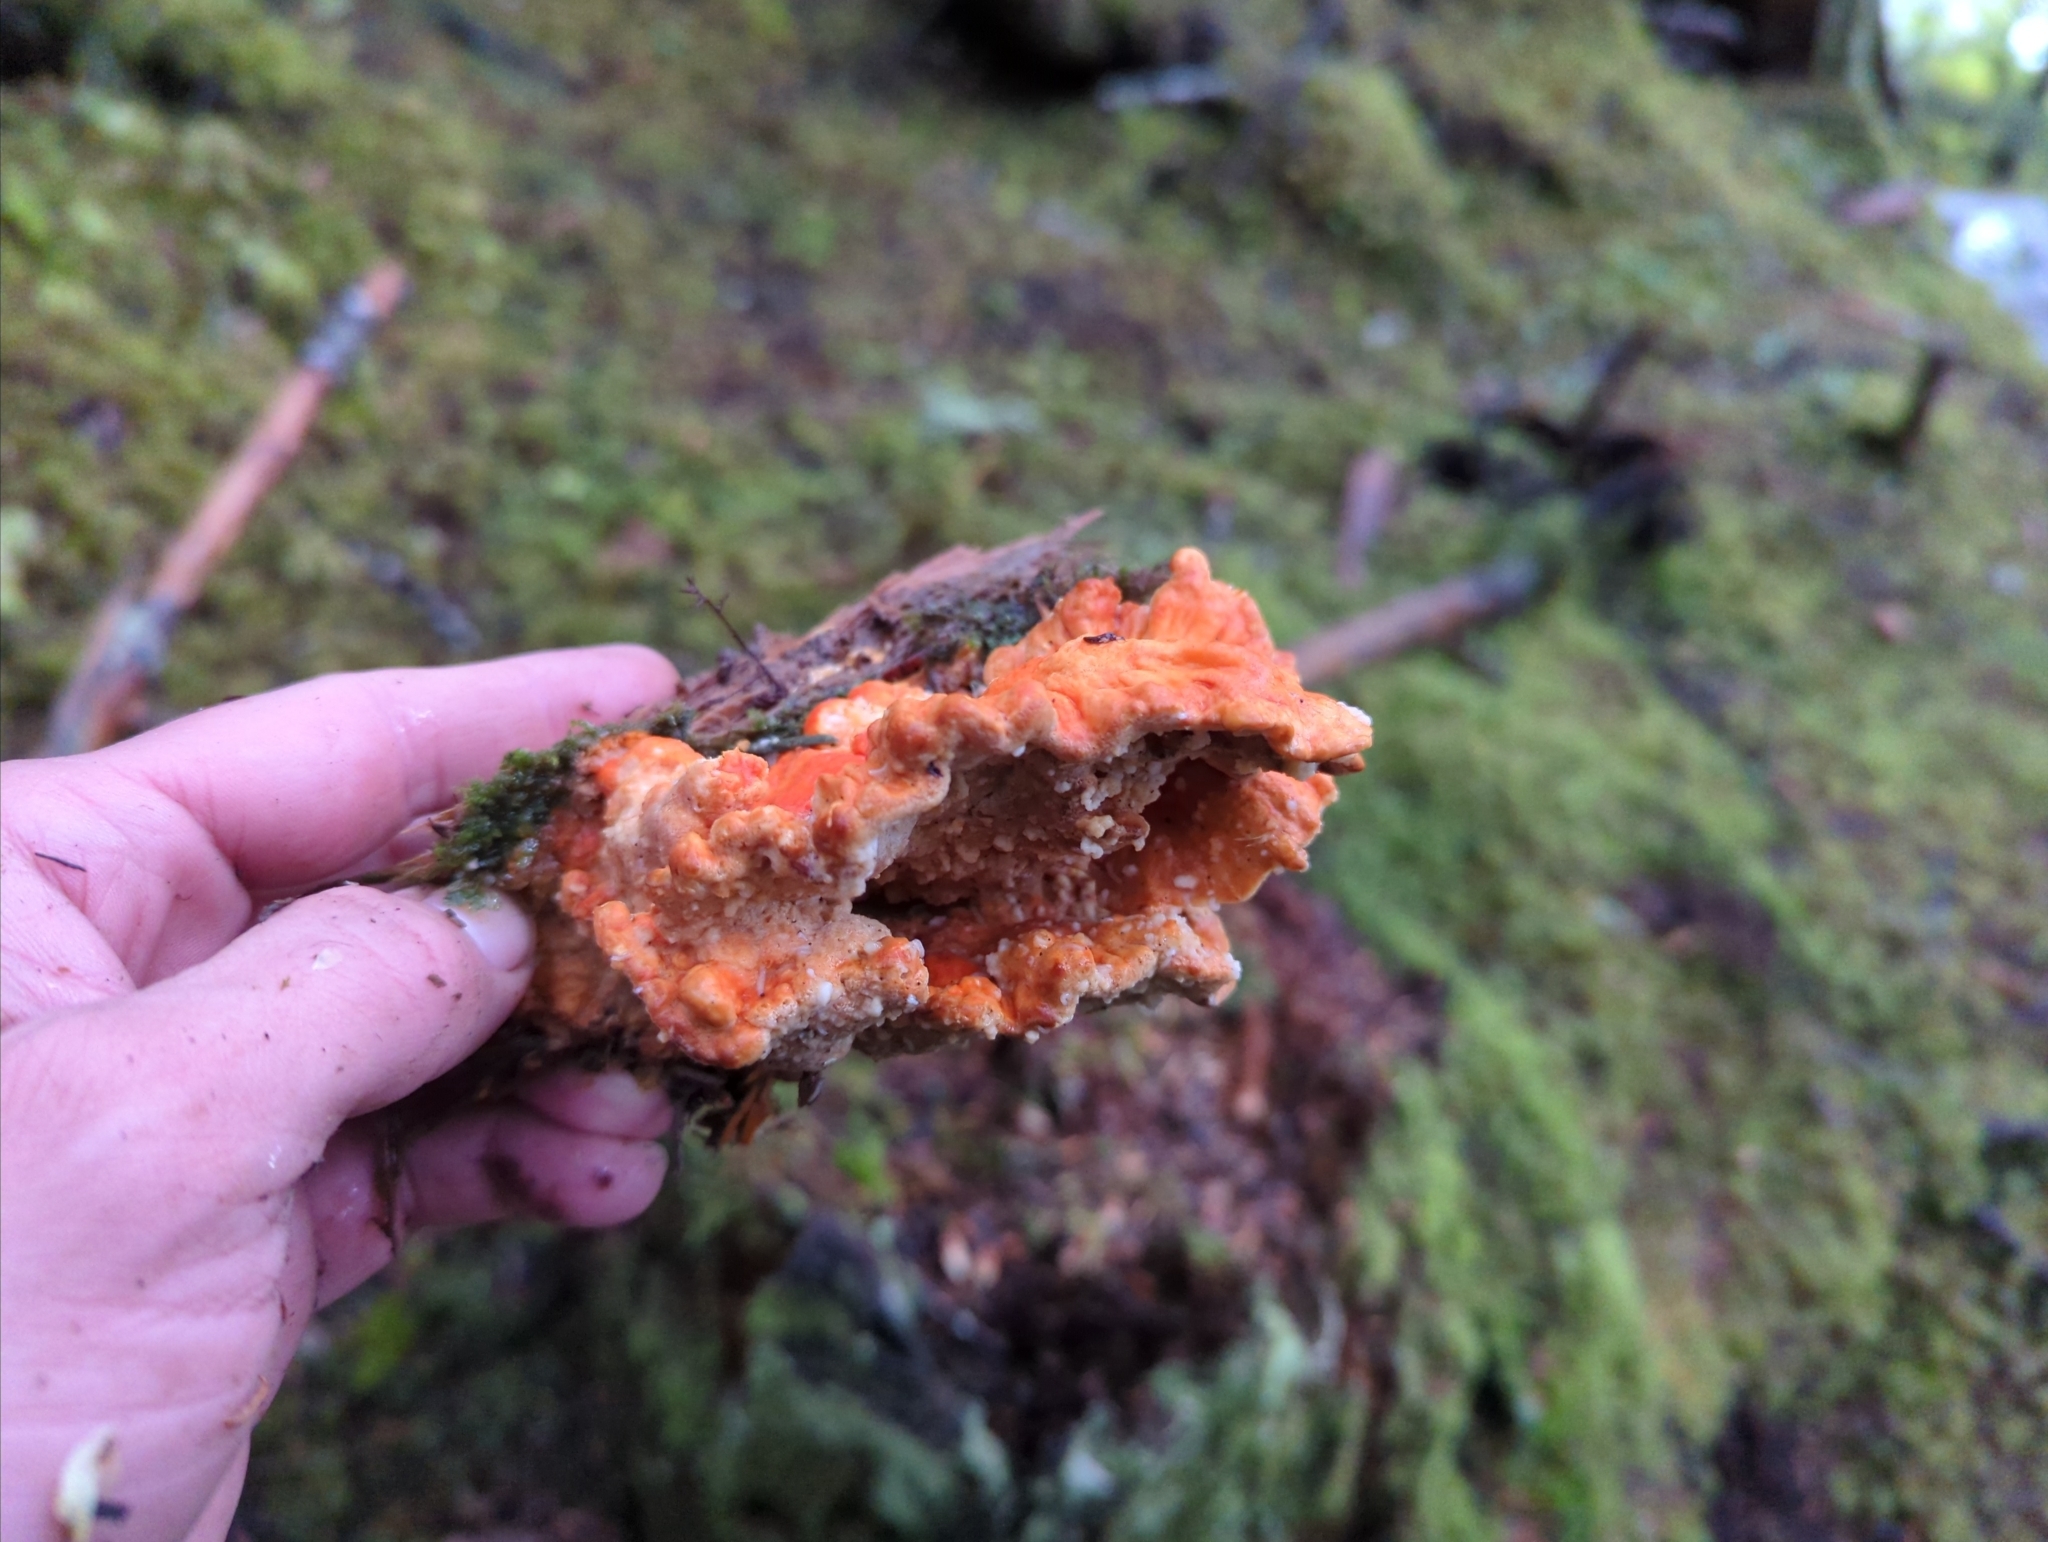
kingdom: Fungi
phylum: Basidiomycota
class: Agaricomycetes
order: Polyporales
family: Laetiporaceae
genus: Laetiporus
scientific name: Laetiporus conifericola
